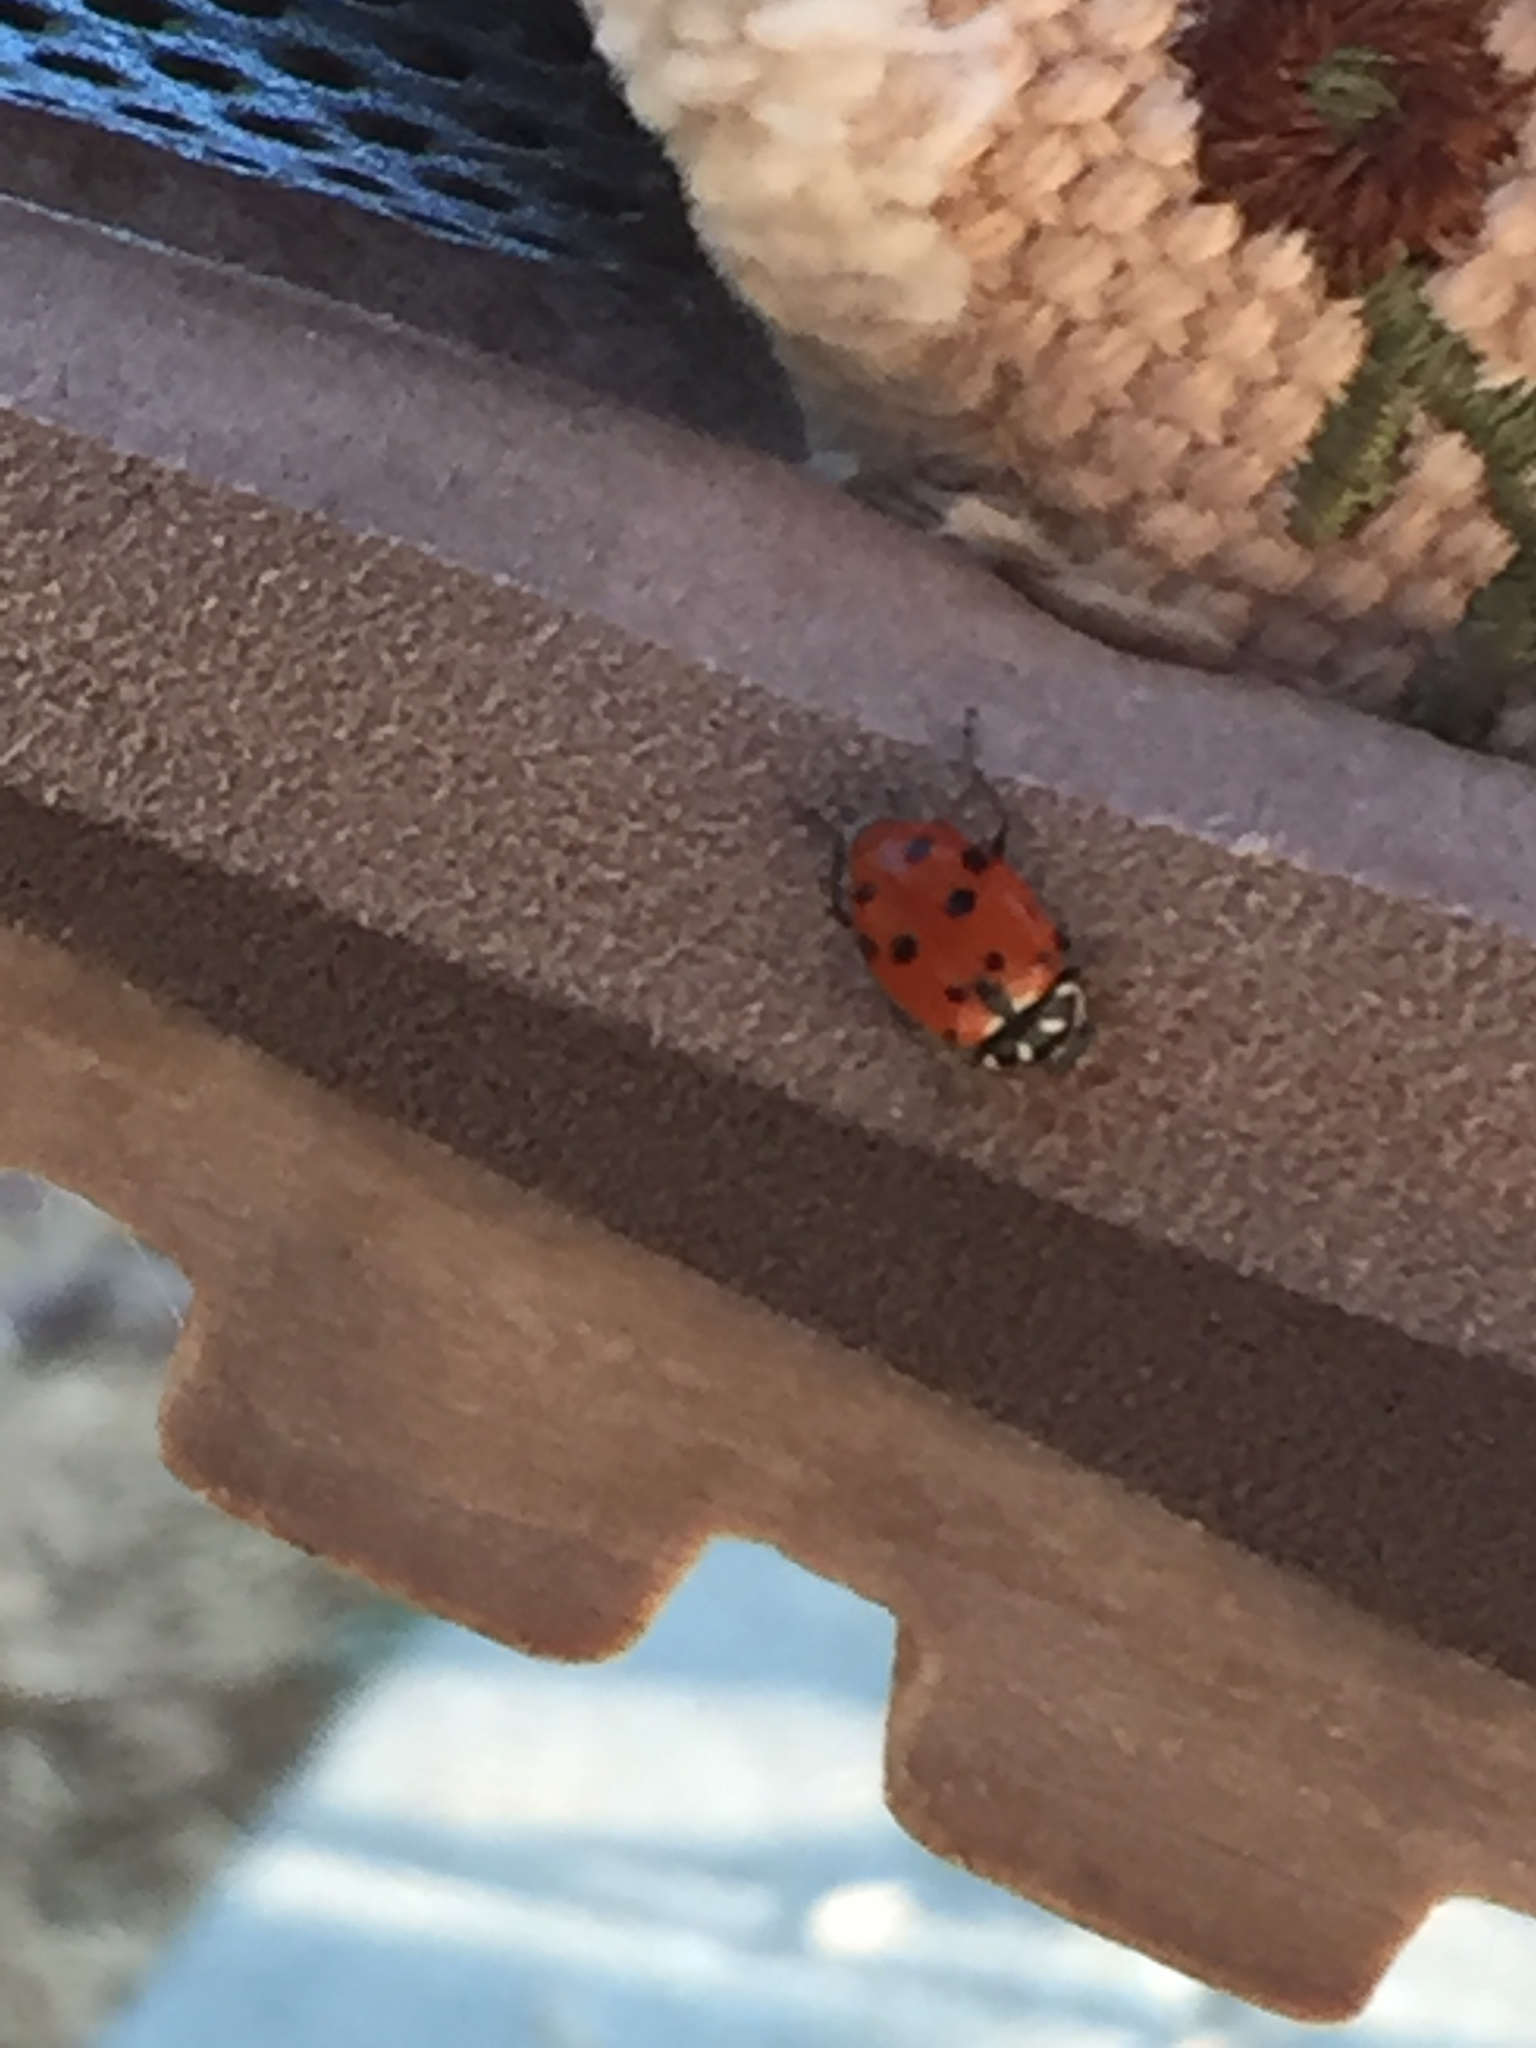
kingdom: Animalia
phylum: Arthropoda
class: Insecta
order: Coleoptera
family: Coccinellidae
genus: Hippodamia
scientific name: Hippodamia convergens
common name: Convergent lady beetle
